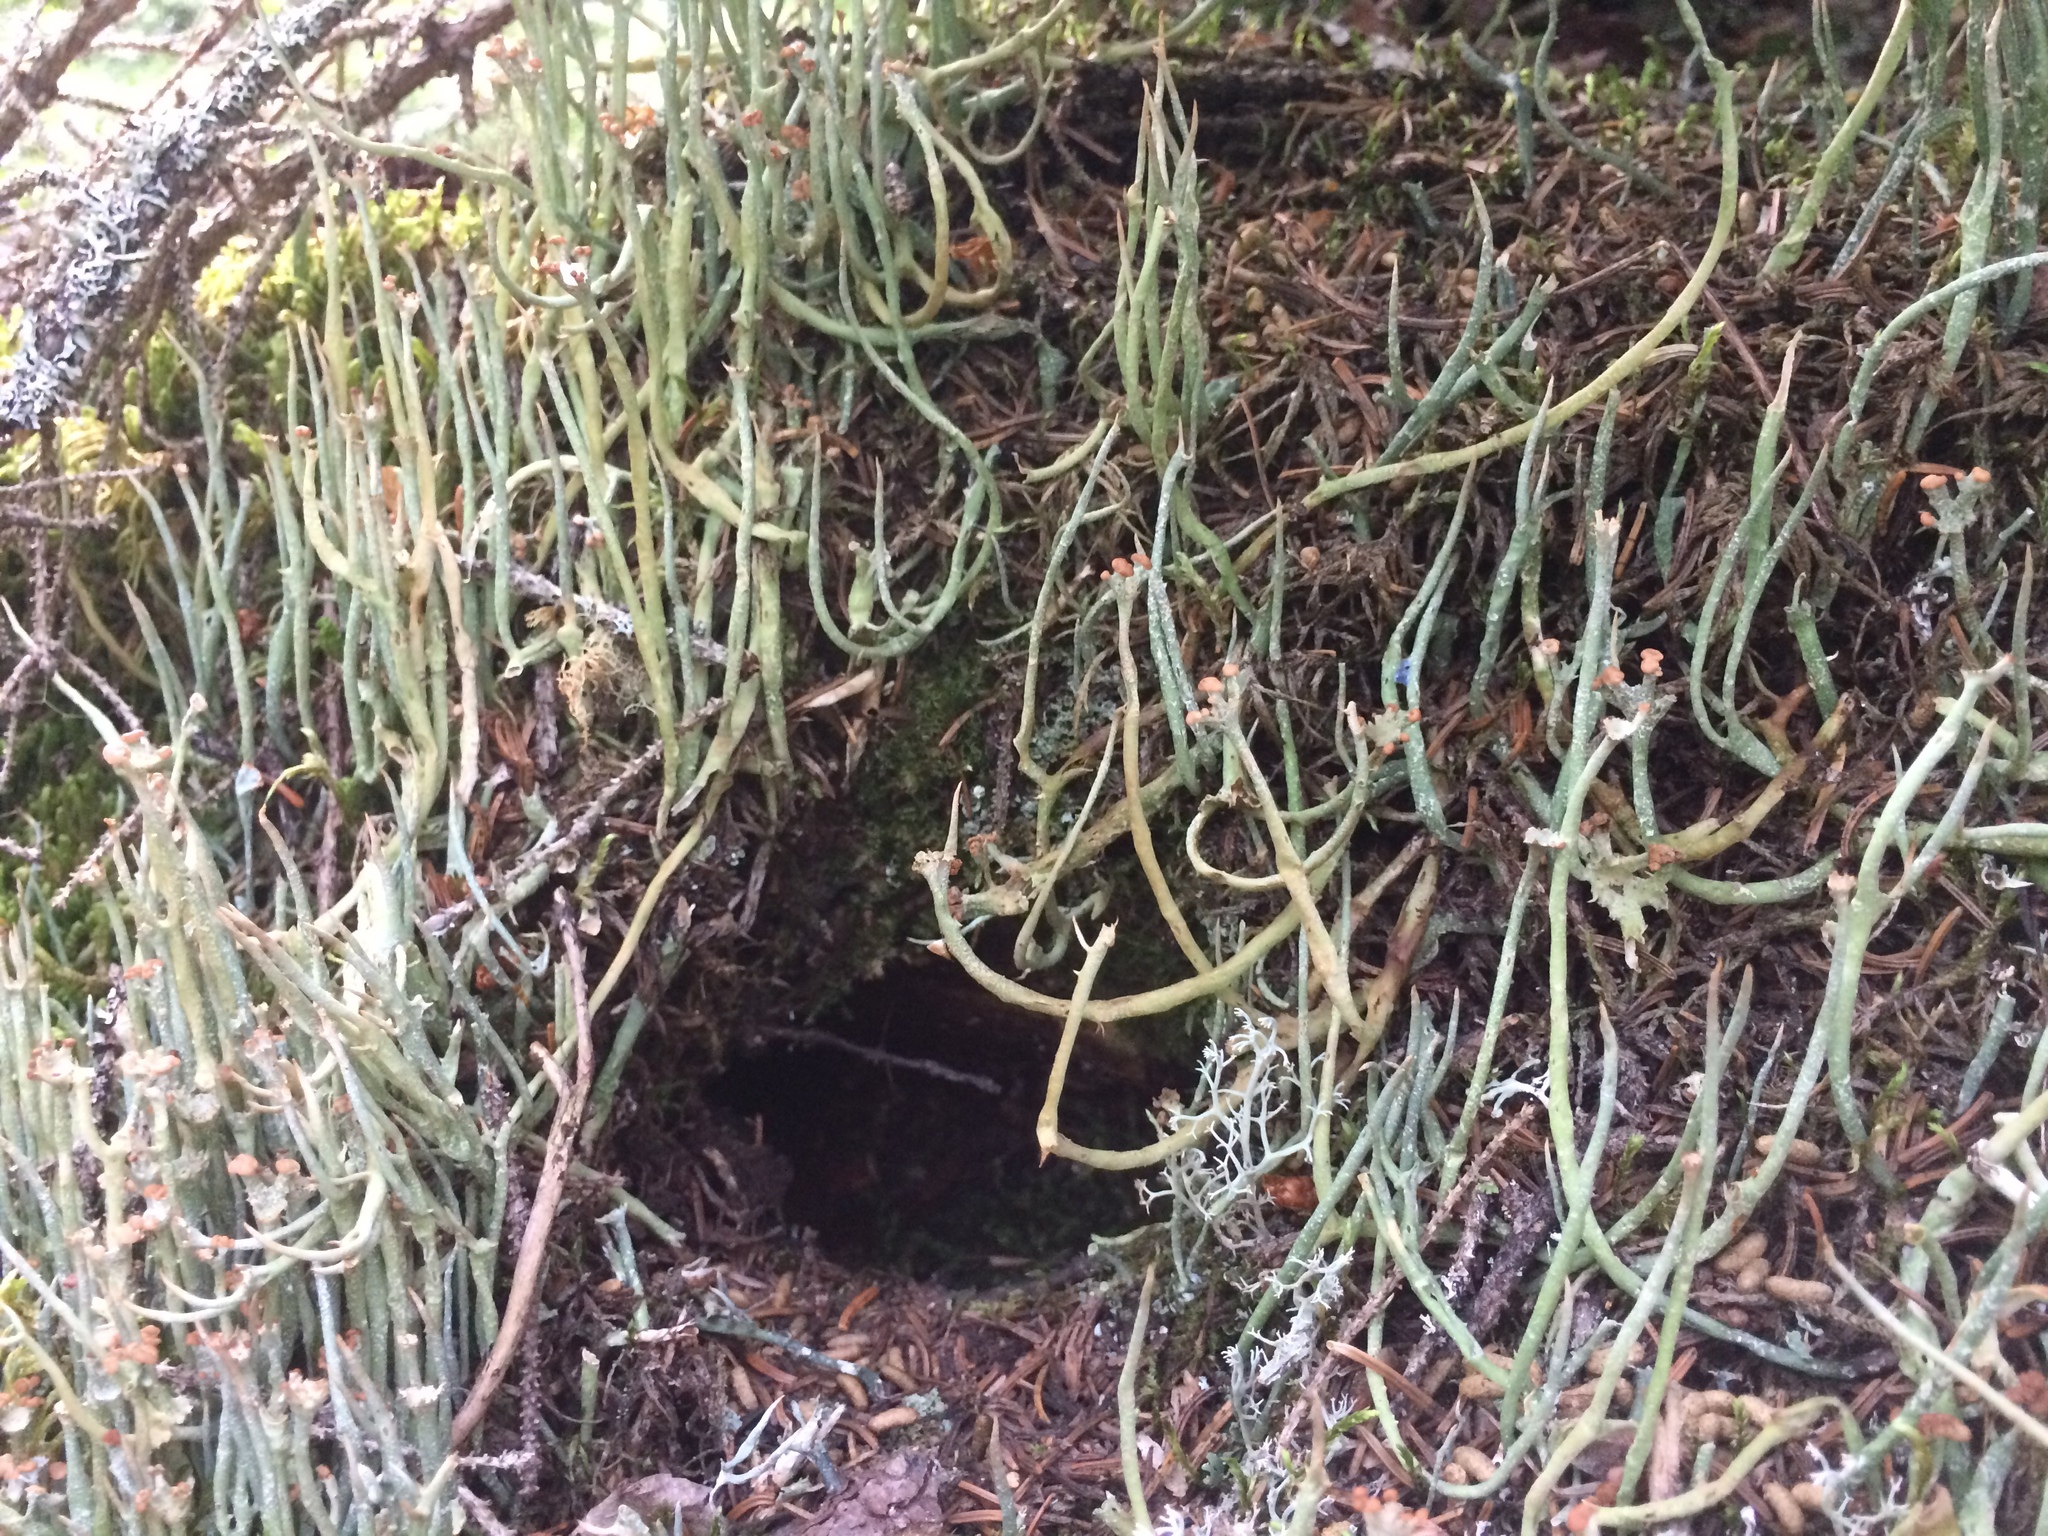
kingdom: Fungi
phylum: Ascomycota
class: Lecanoromycetes
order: Lecanorales
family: Cladoniaceae
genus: Cladonia
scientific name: Cladonia maxima
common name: Giant cladonia lichen
